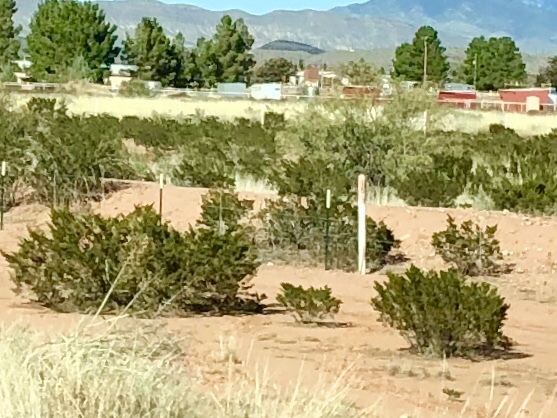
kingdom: Plantae
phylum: Tracheophyta
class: Magnoliopsida
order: Zygophyllales
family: Zygophyllaceae
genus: Larrea
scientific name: Larrea tridentata
